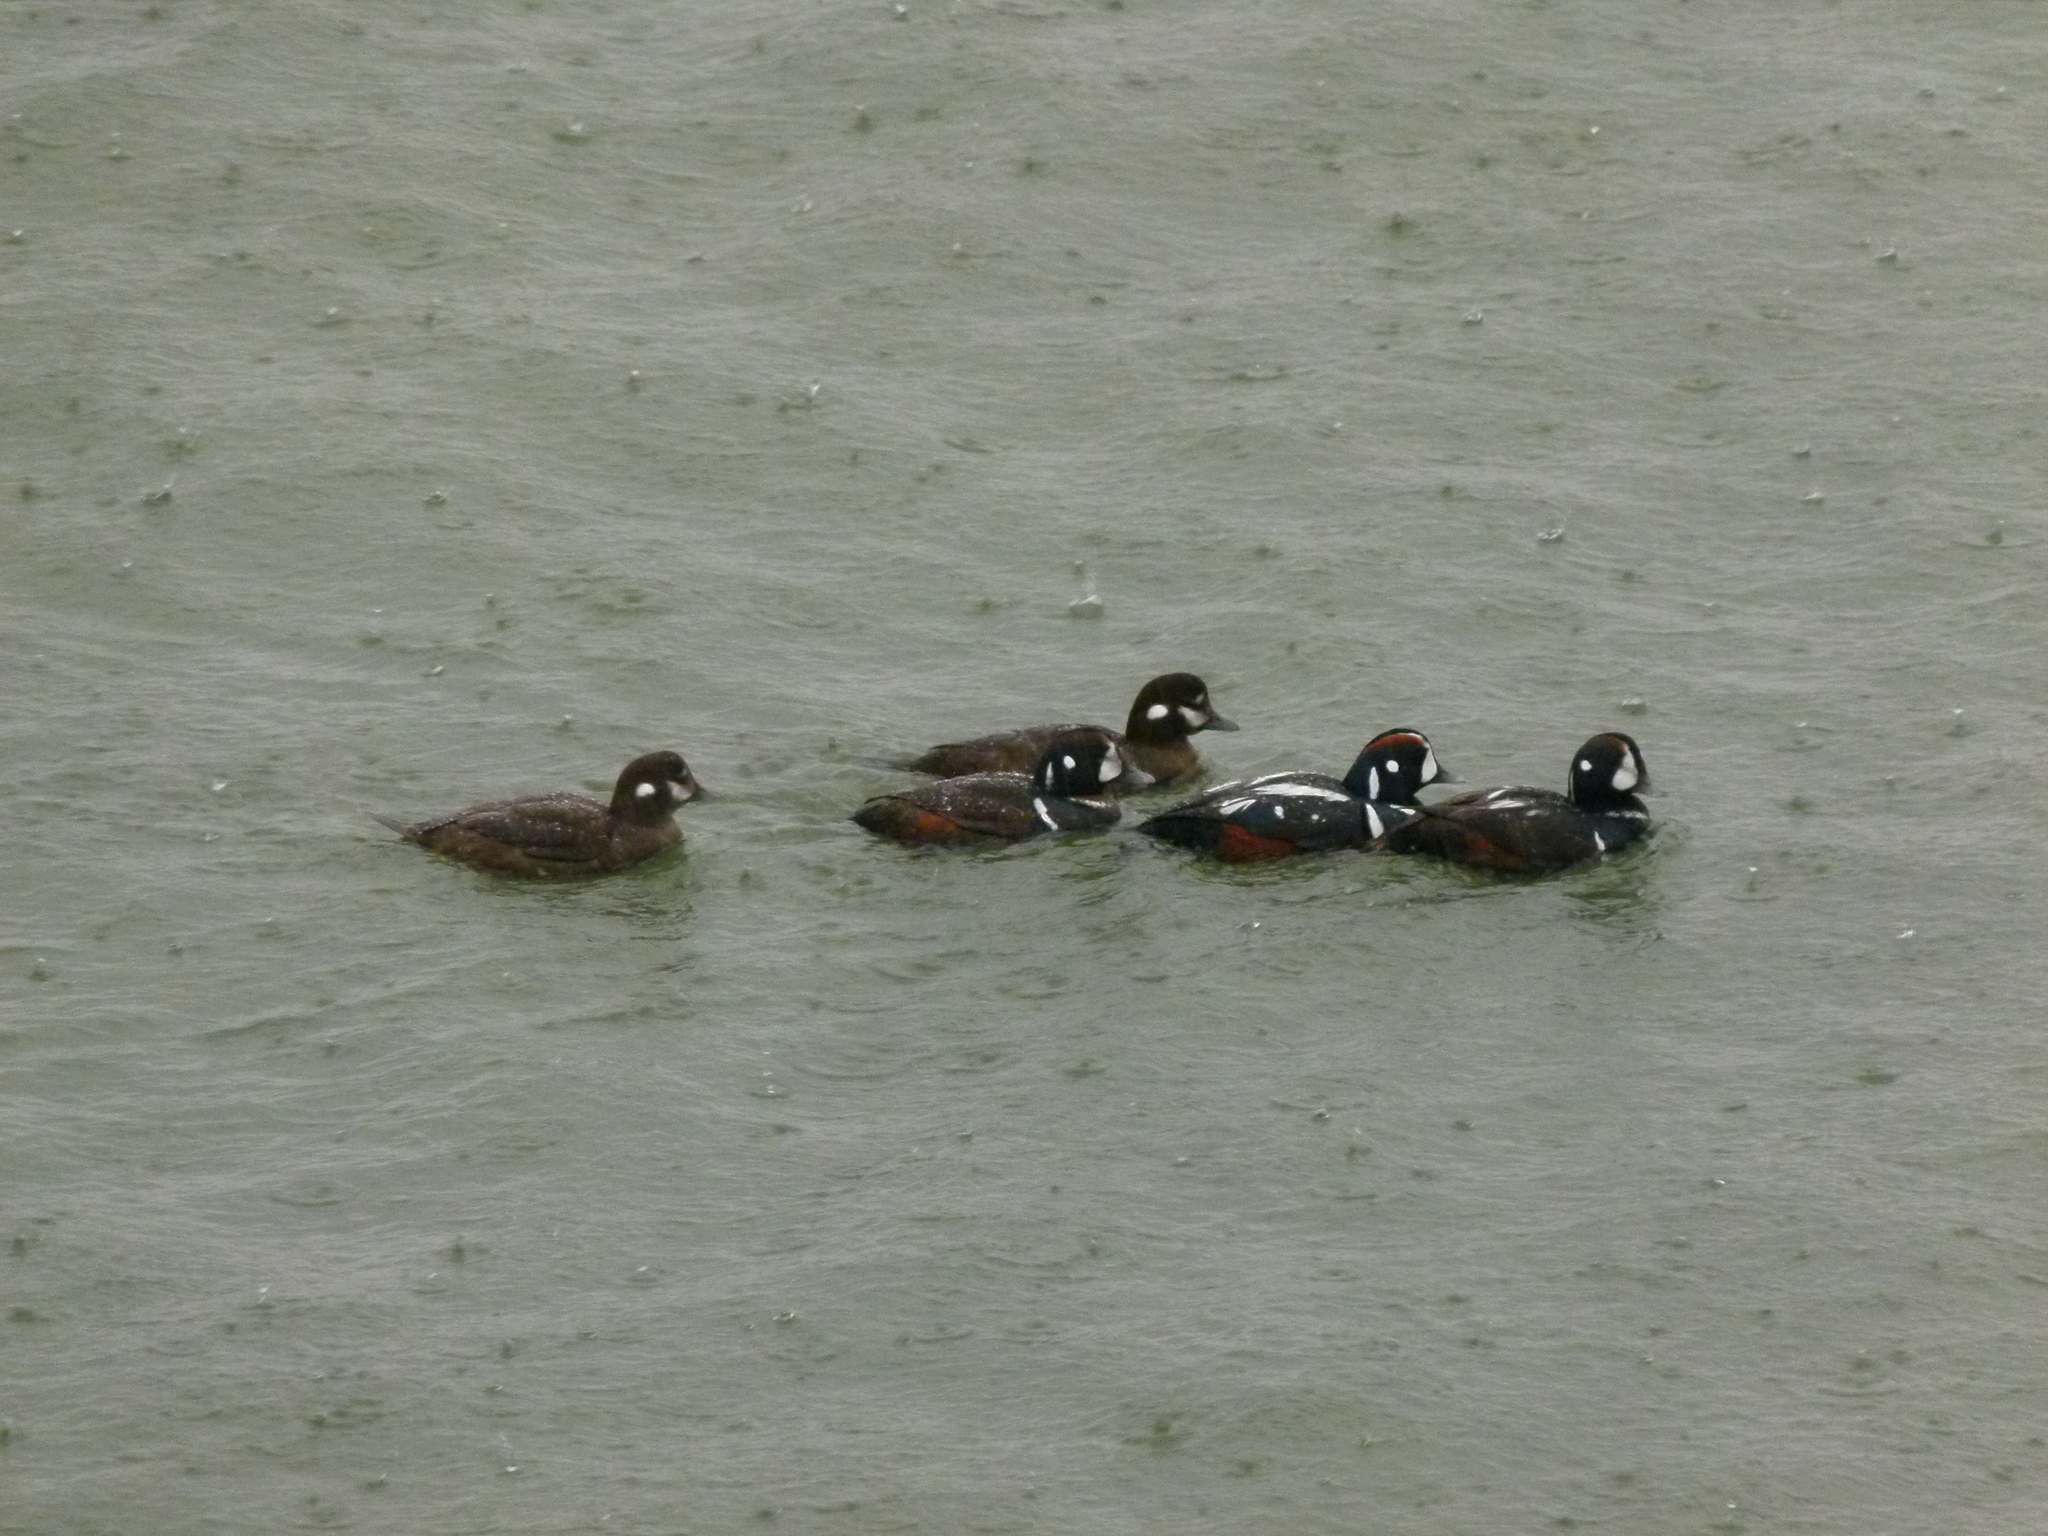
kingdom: Animalia
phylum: Chordata
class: Aves
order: Anseriformes
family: Anatidae
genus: Histrionicus
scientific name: Histrionicus histrionicus
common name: Harlequin duck
